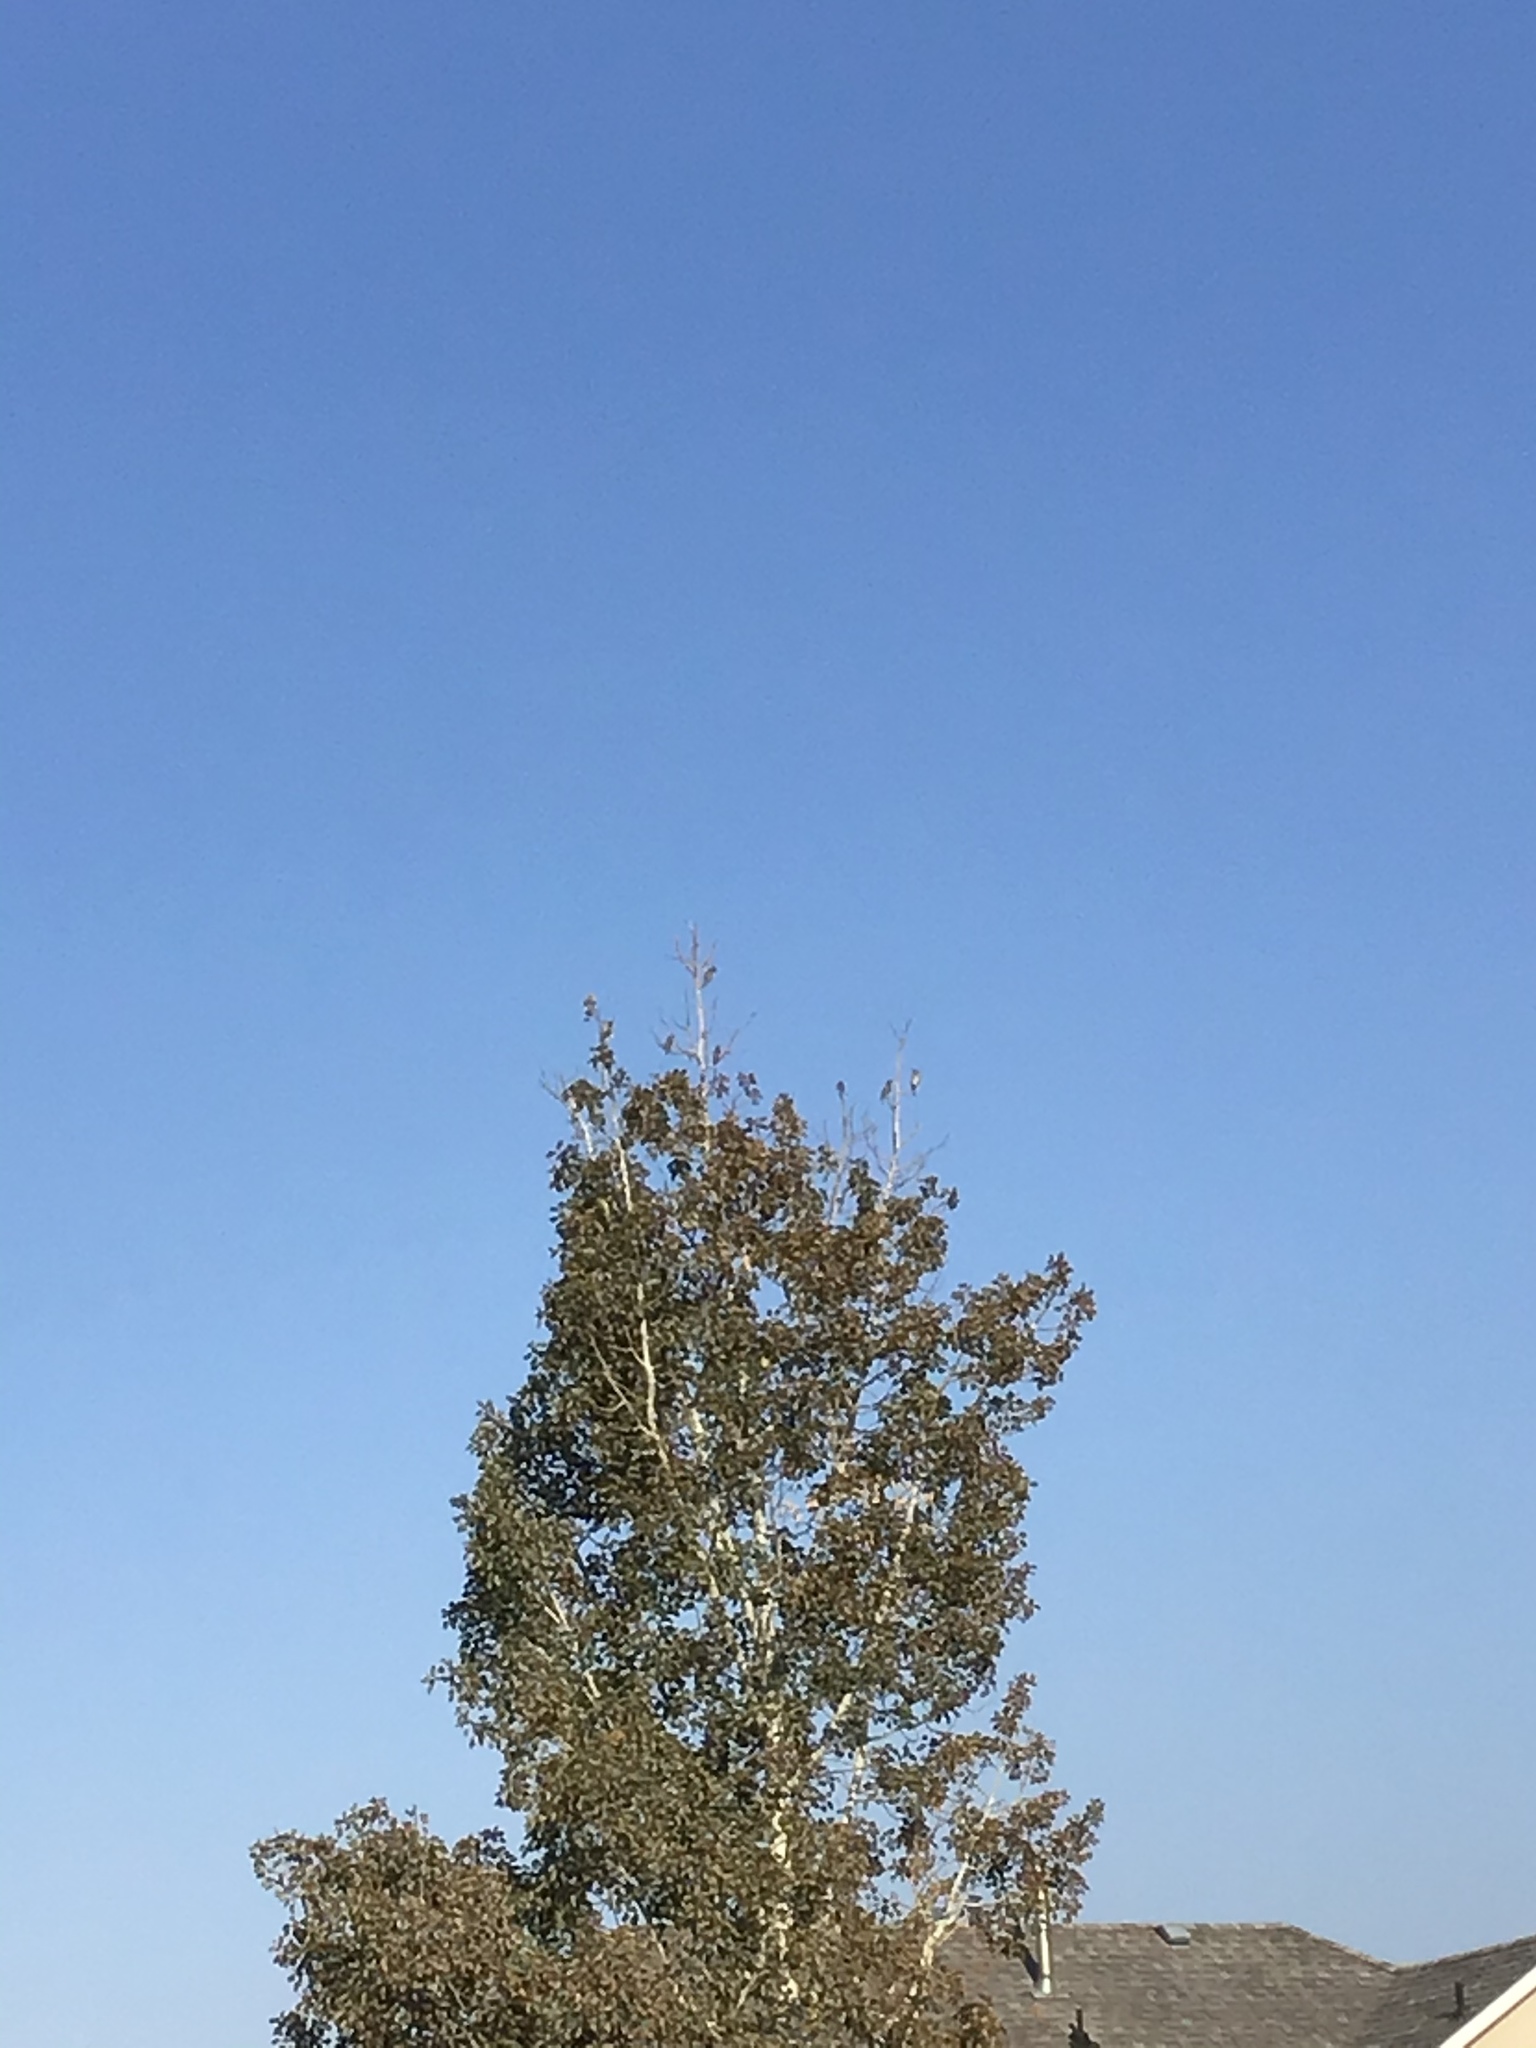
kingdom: Animalia
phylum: Chordata
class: Aves
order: Passeriformes
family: Bombycillidae
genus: Bombycilla
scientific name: Bombycilla cedrorum
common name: Cedar waxwing
